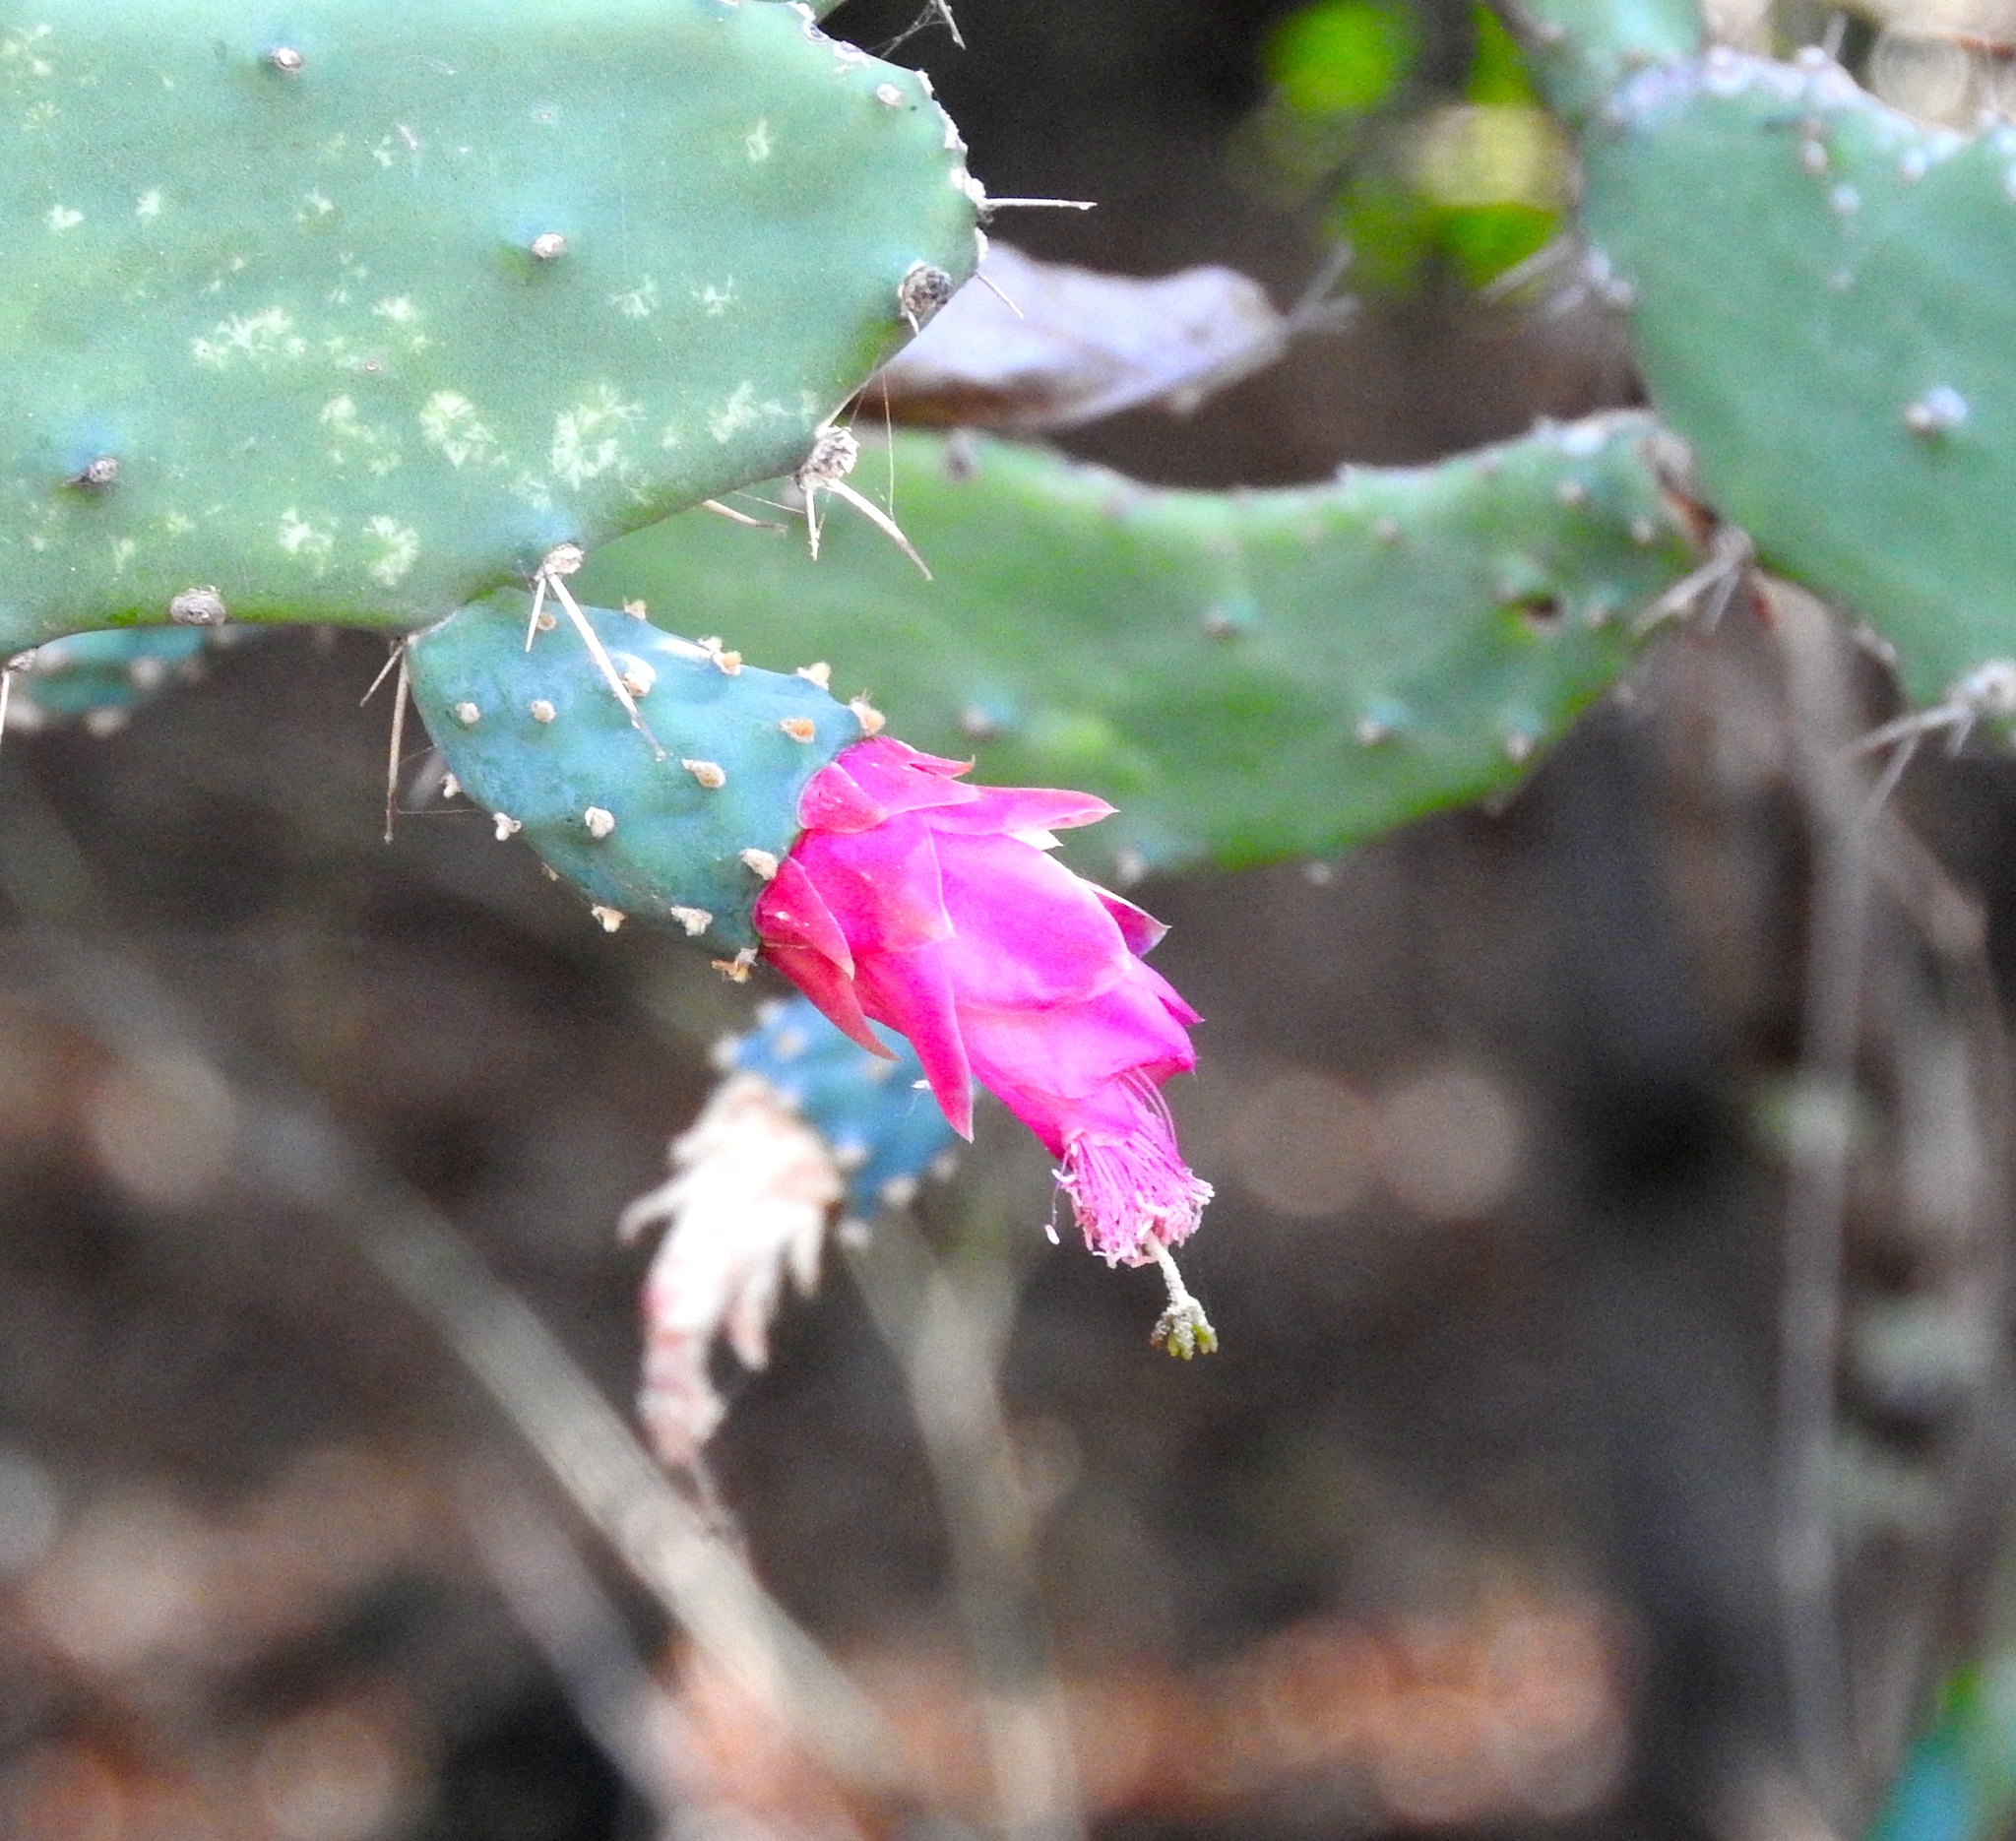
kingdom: Plantae
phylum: Tracheophyta
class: Magnoliopsida
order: Caryophyllales
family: Cactaceae
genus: Nopalea
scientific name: Nopalea
